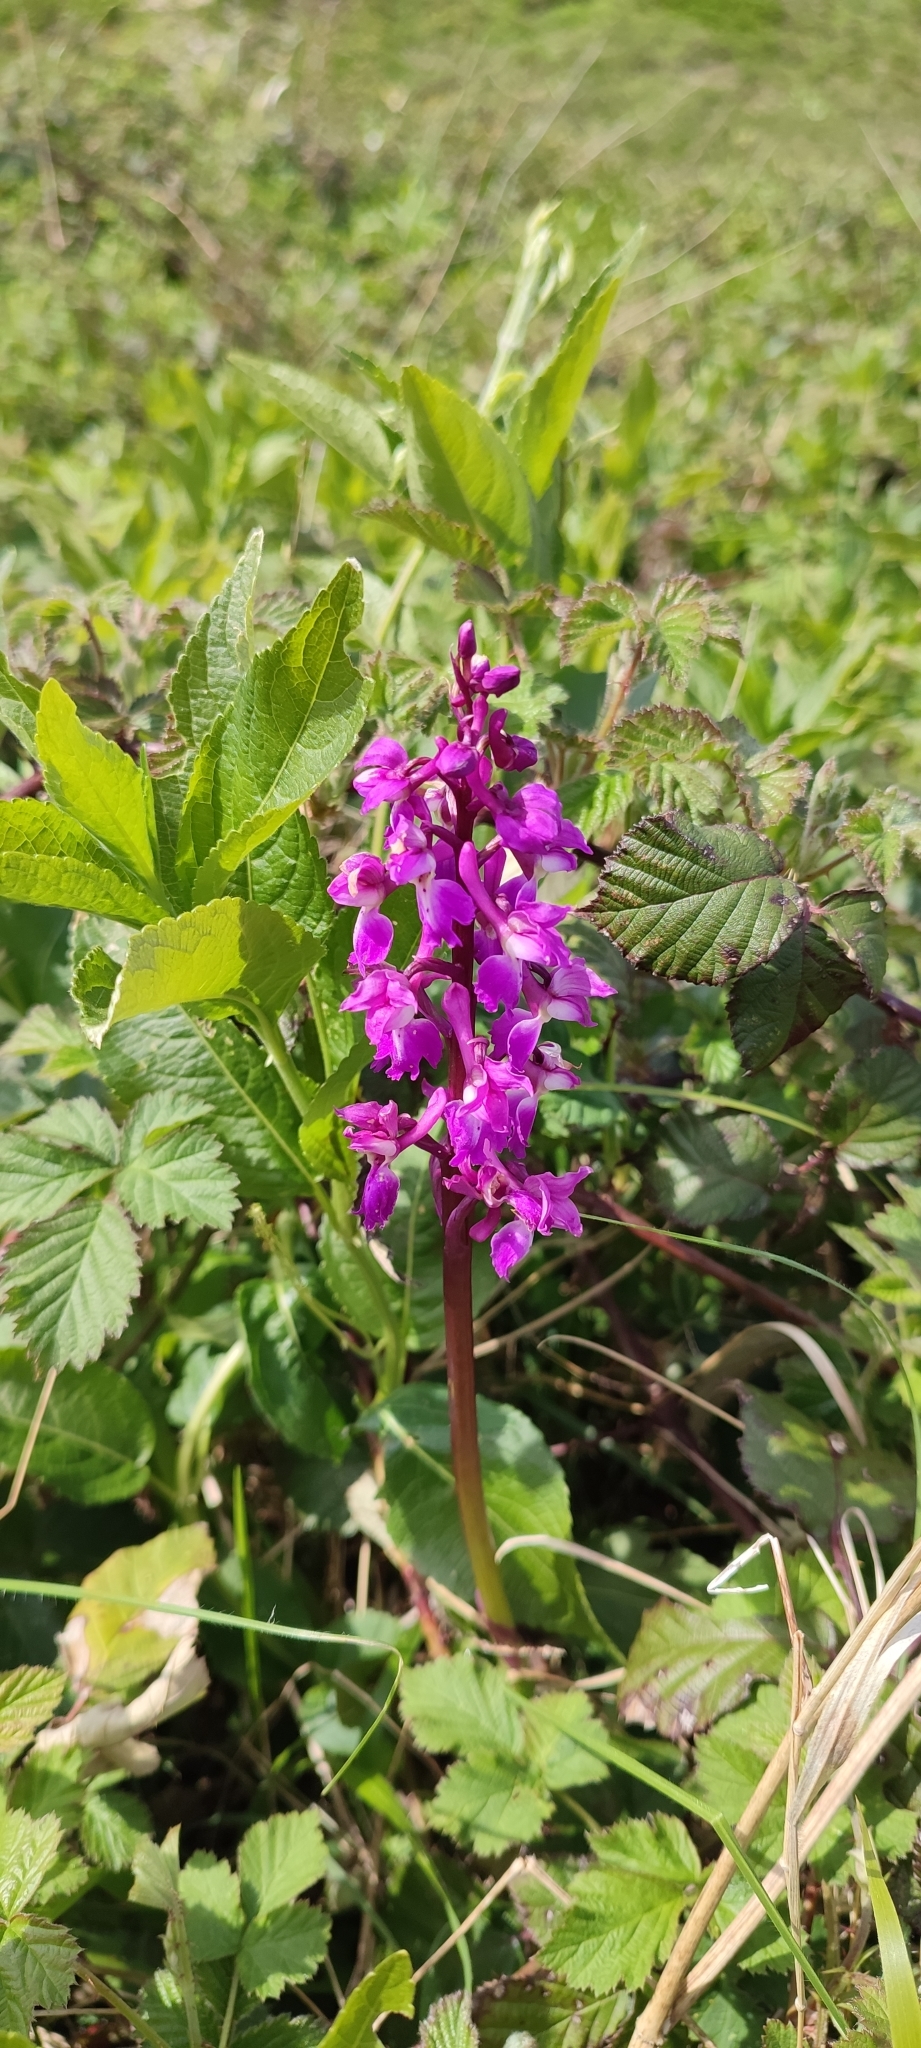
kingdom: Plantae
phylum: Tracheophyta
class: Liliopsida
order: Asparagales
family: Orchidaceae
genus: Orchis
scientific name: Orchis mascula
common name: Early-purple orchid
